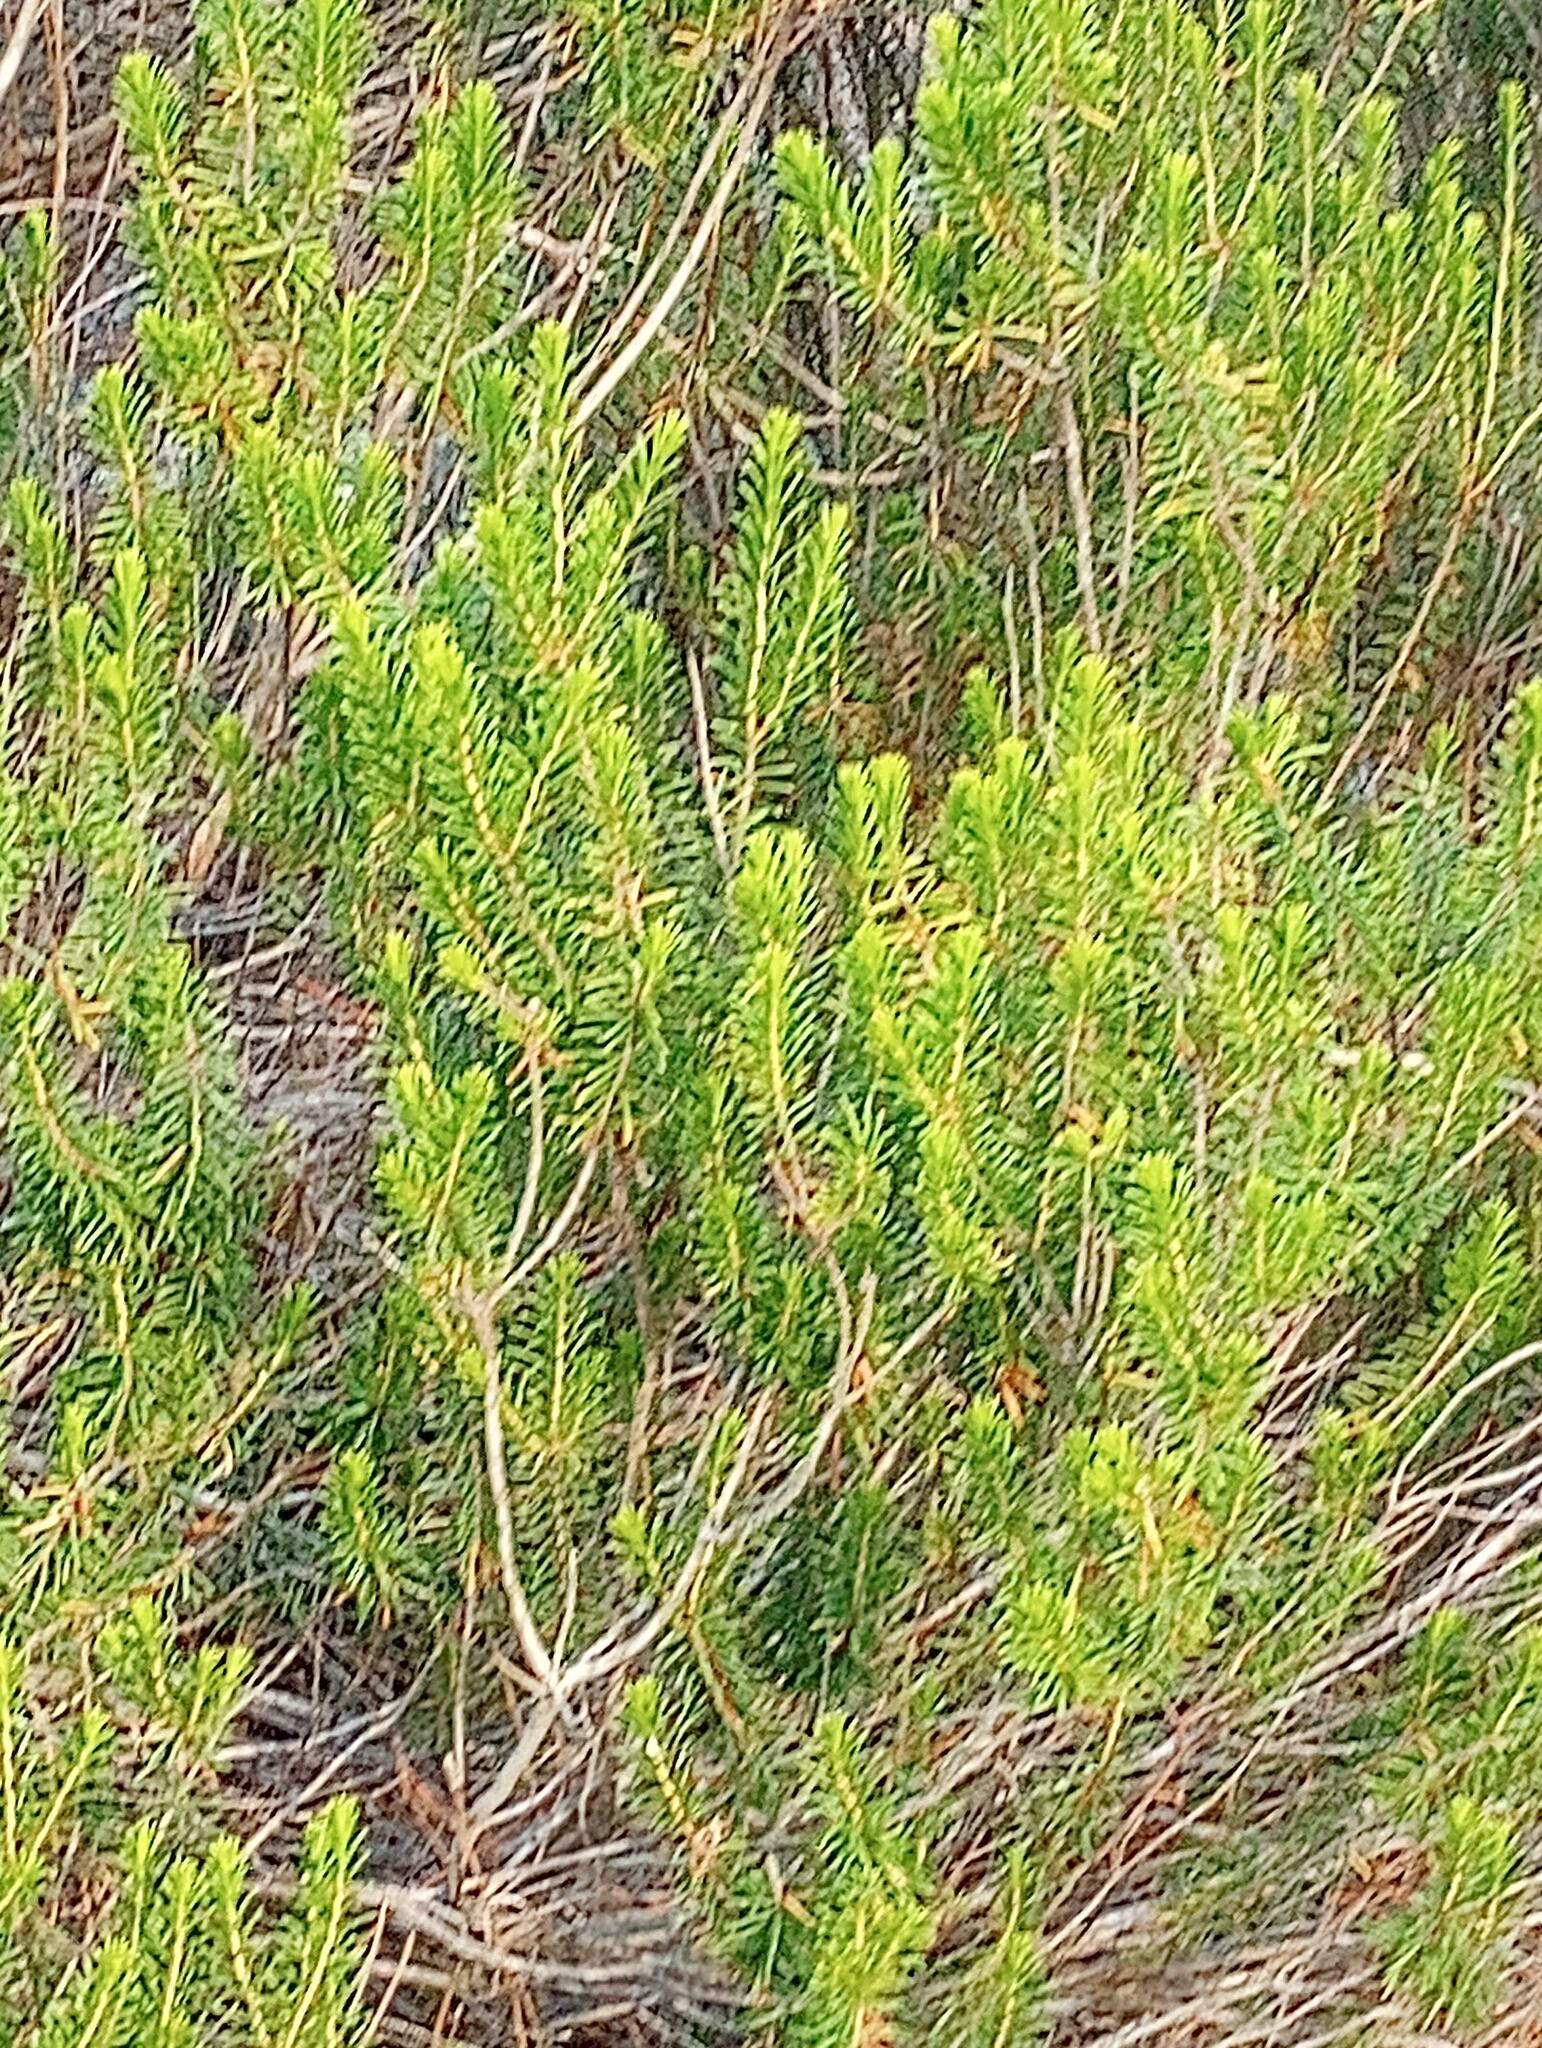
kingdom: Plantae
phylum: Tracheophyta
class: Magnoliopsida
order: Ericales
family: Ericaceae
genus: Ceratiola
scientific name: Ceratiola ericoides
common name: Sandhill-rosemary
